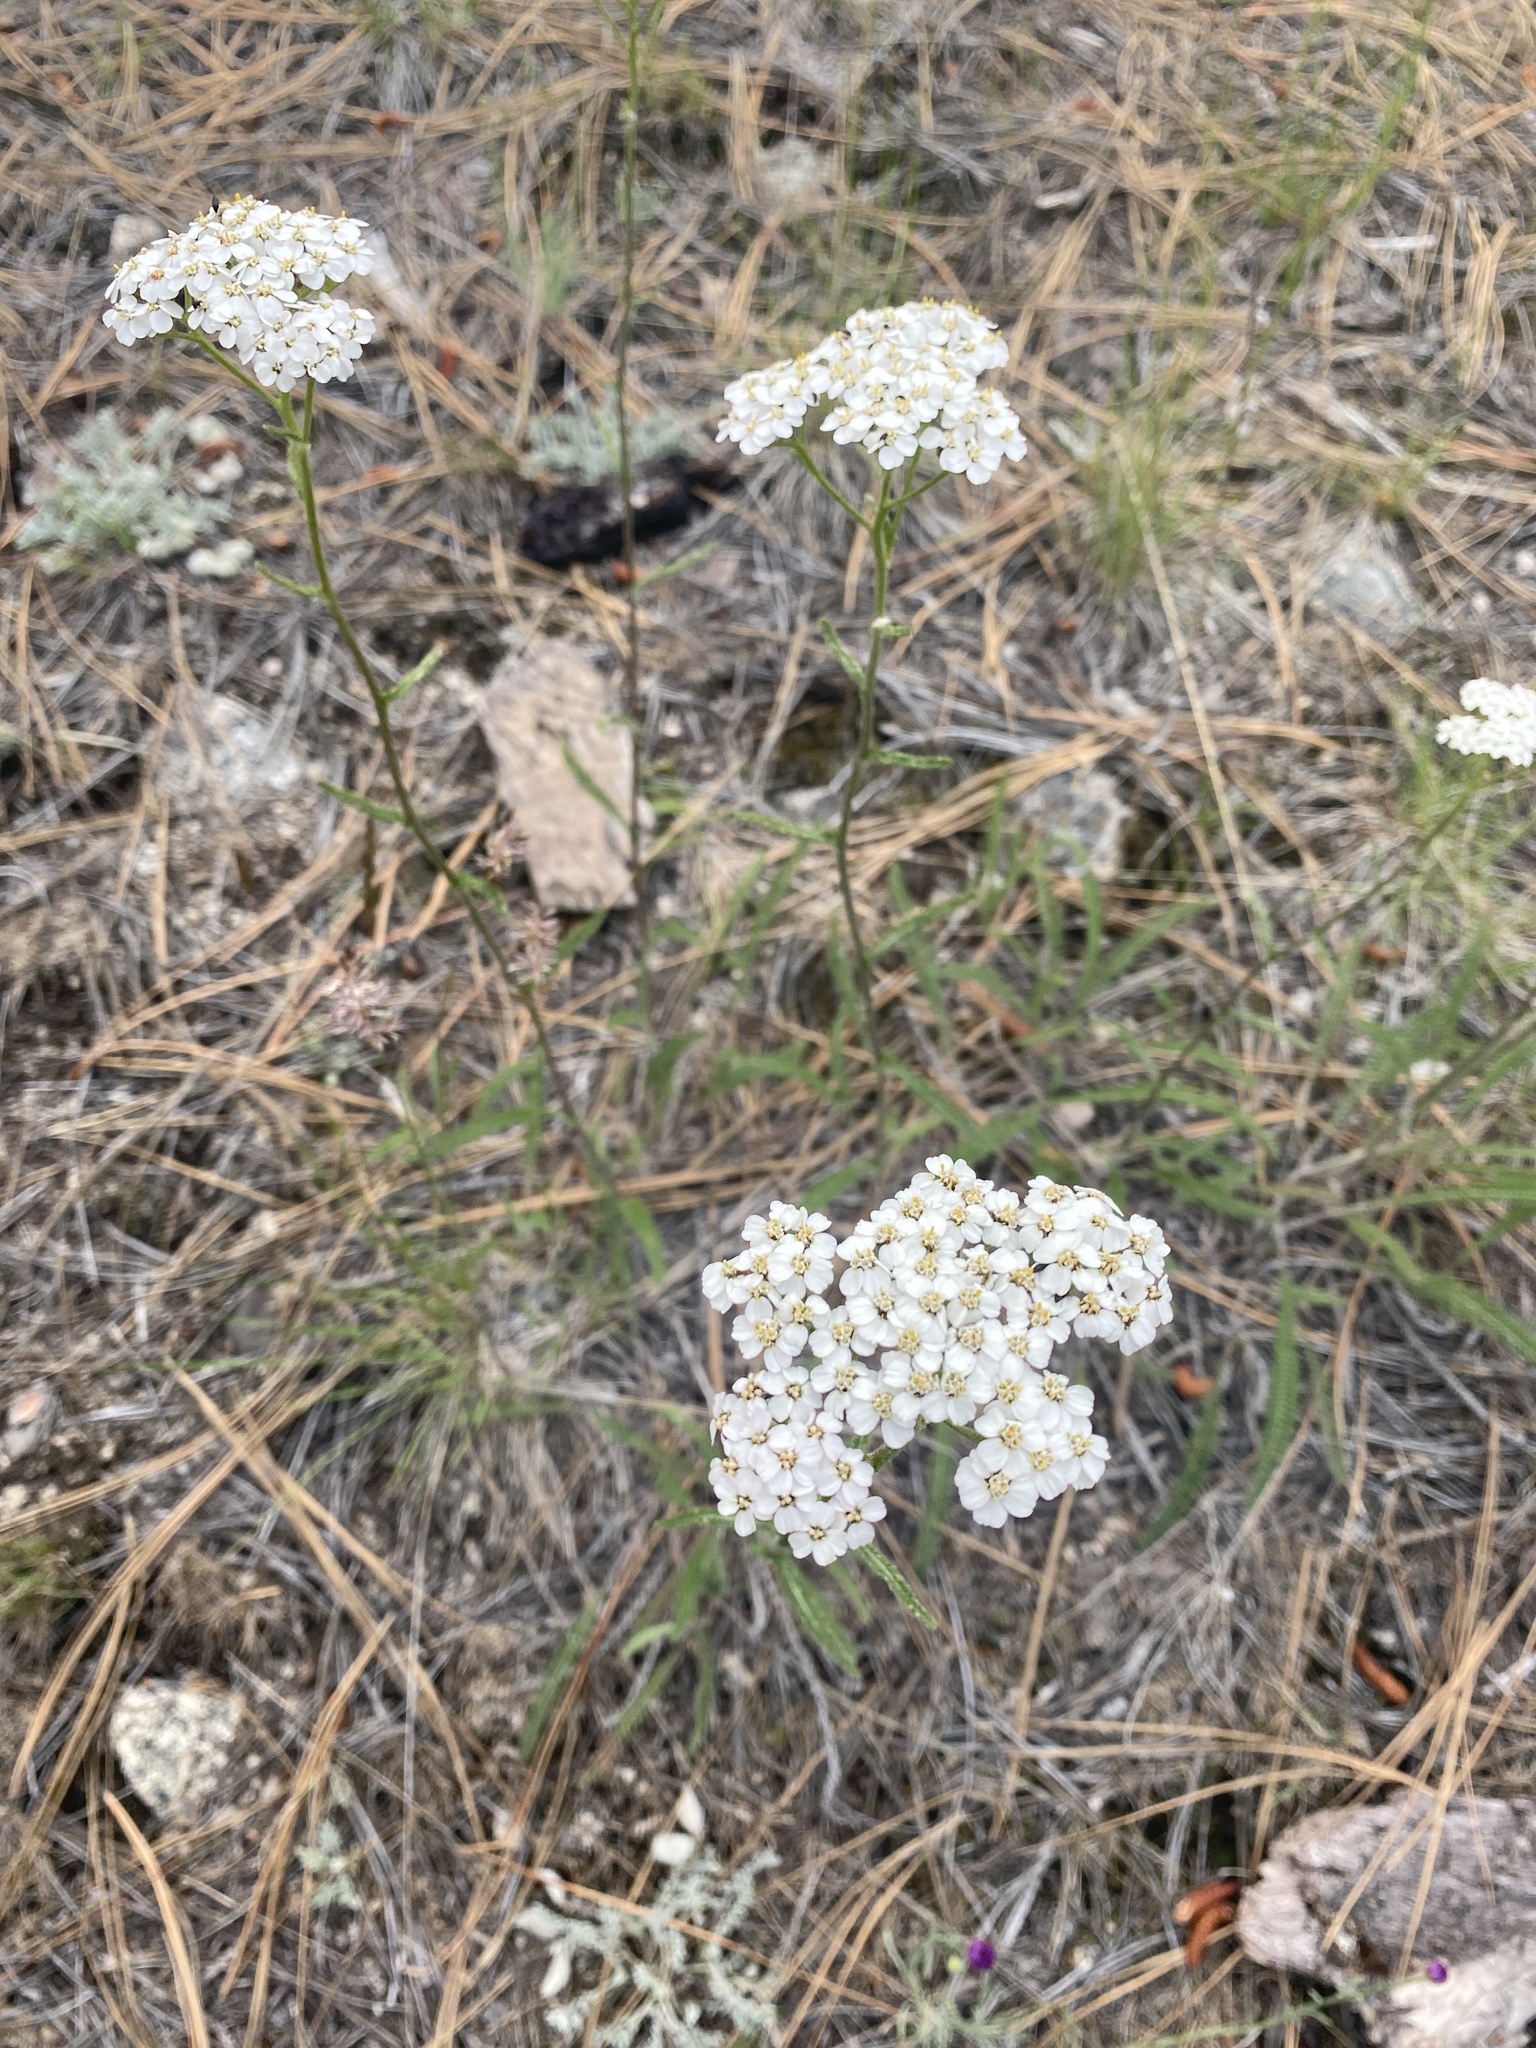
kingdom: Plantae
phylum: Tracheophyta
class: Magnoliopsida
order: Asterales
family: Asteraceae
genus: Achillea
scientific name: Achillea millefolium
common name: Yarrow
